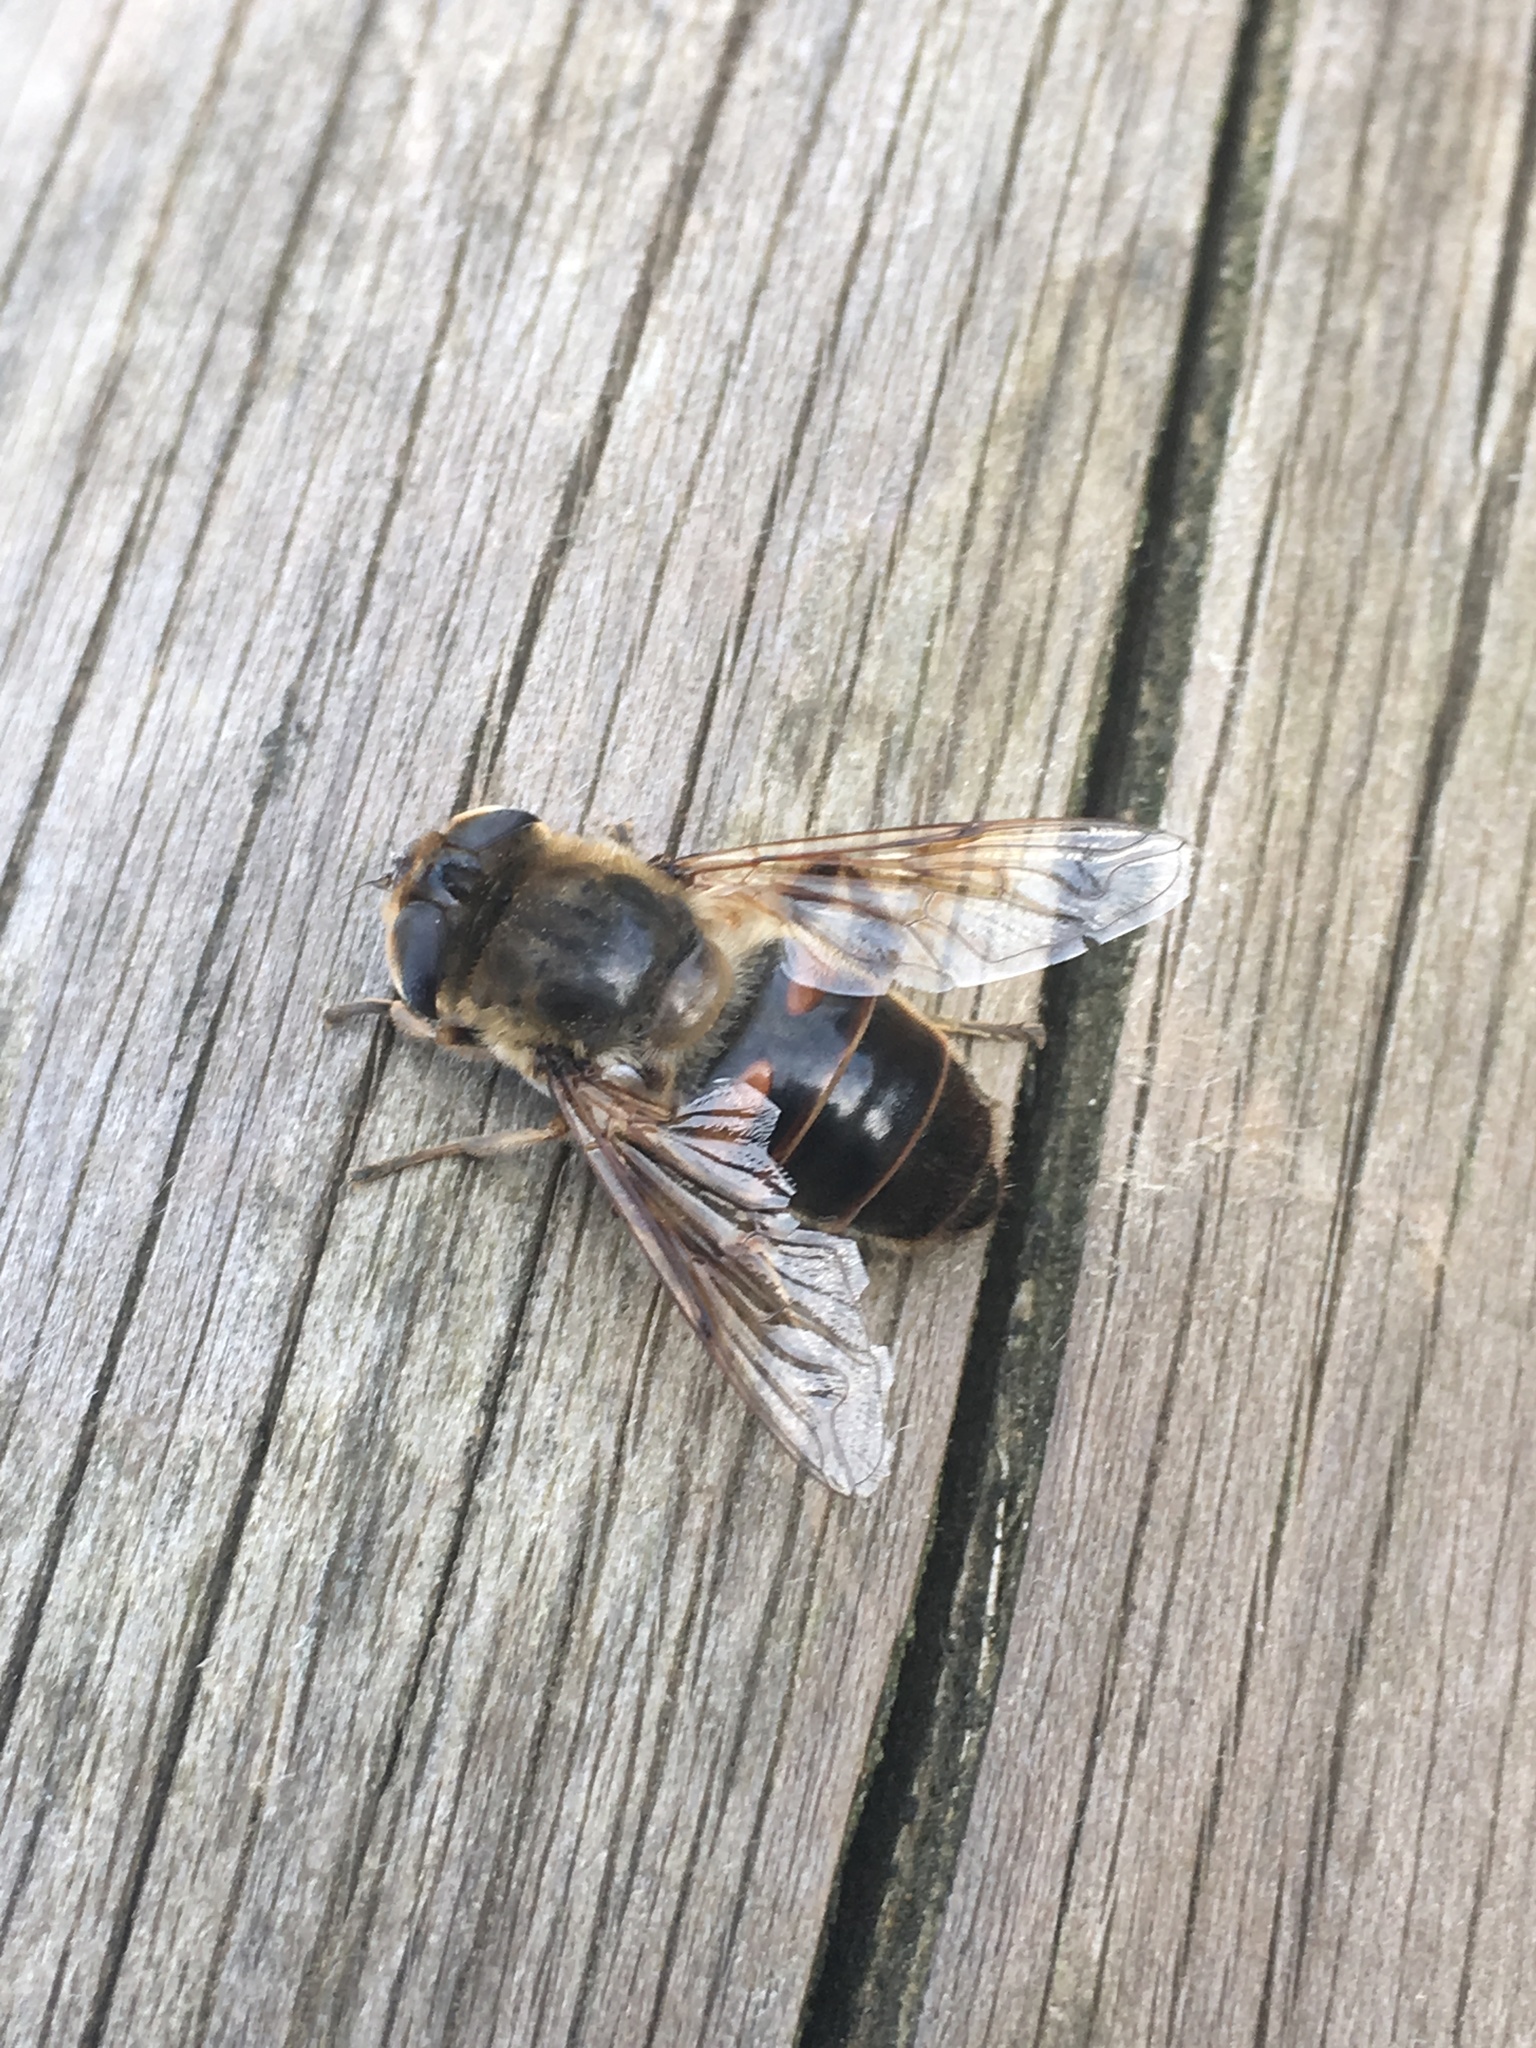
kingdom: Animalia
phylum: Arthropoda
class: Insecta
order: Diptera
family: Syrphidae
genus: Eristalis
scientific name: Eristalis tenax
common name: Drone fly
